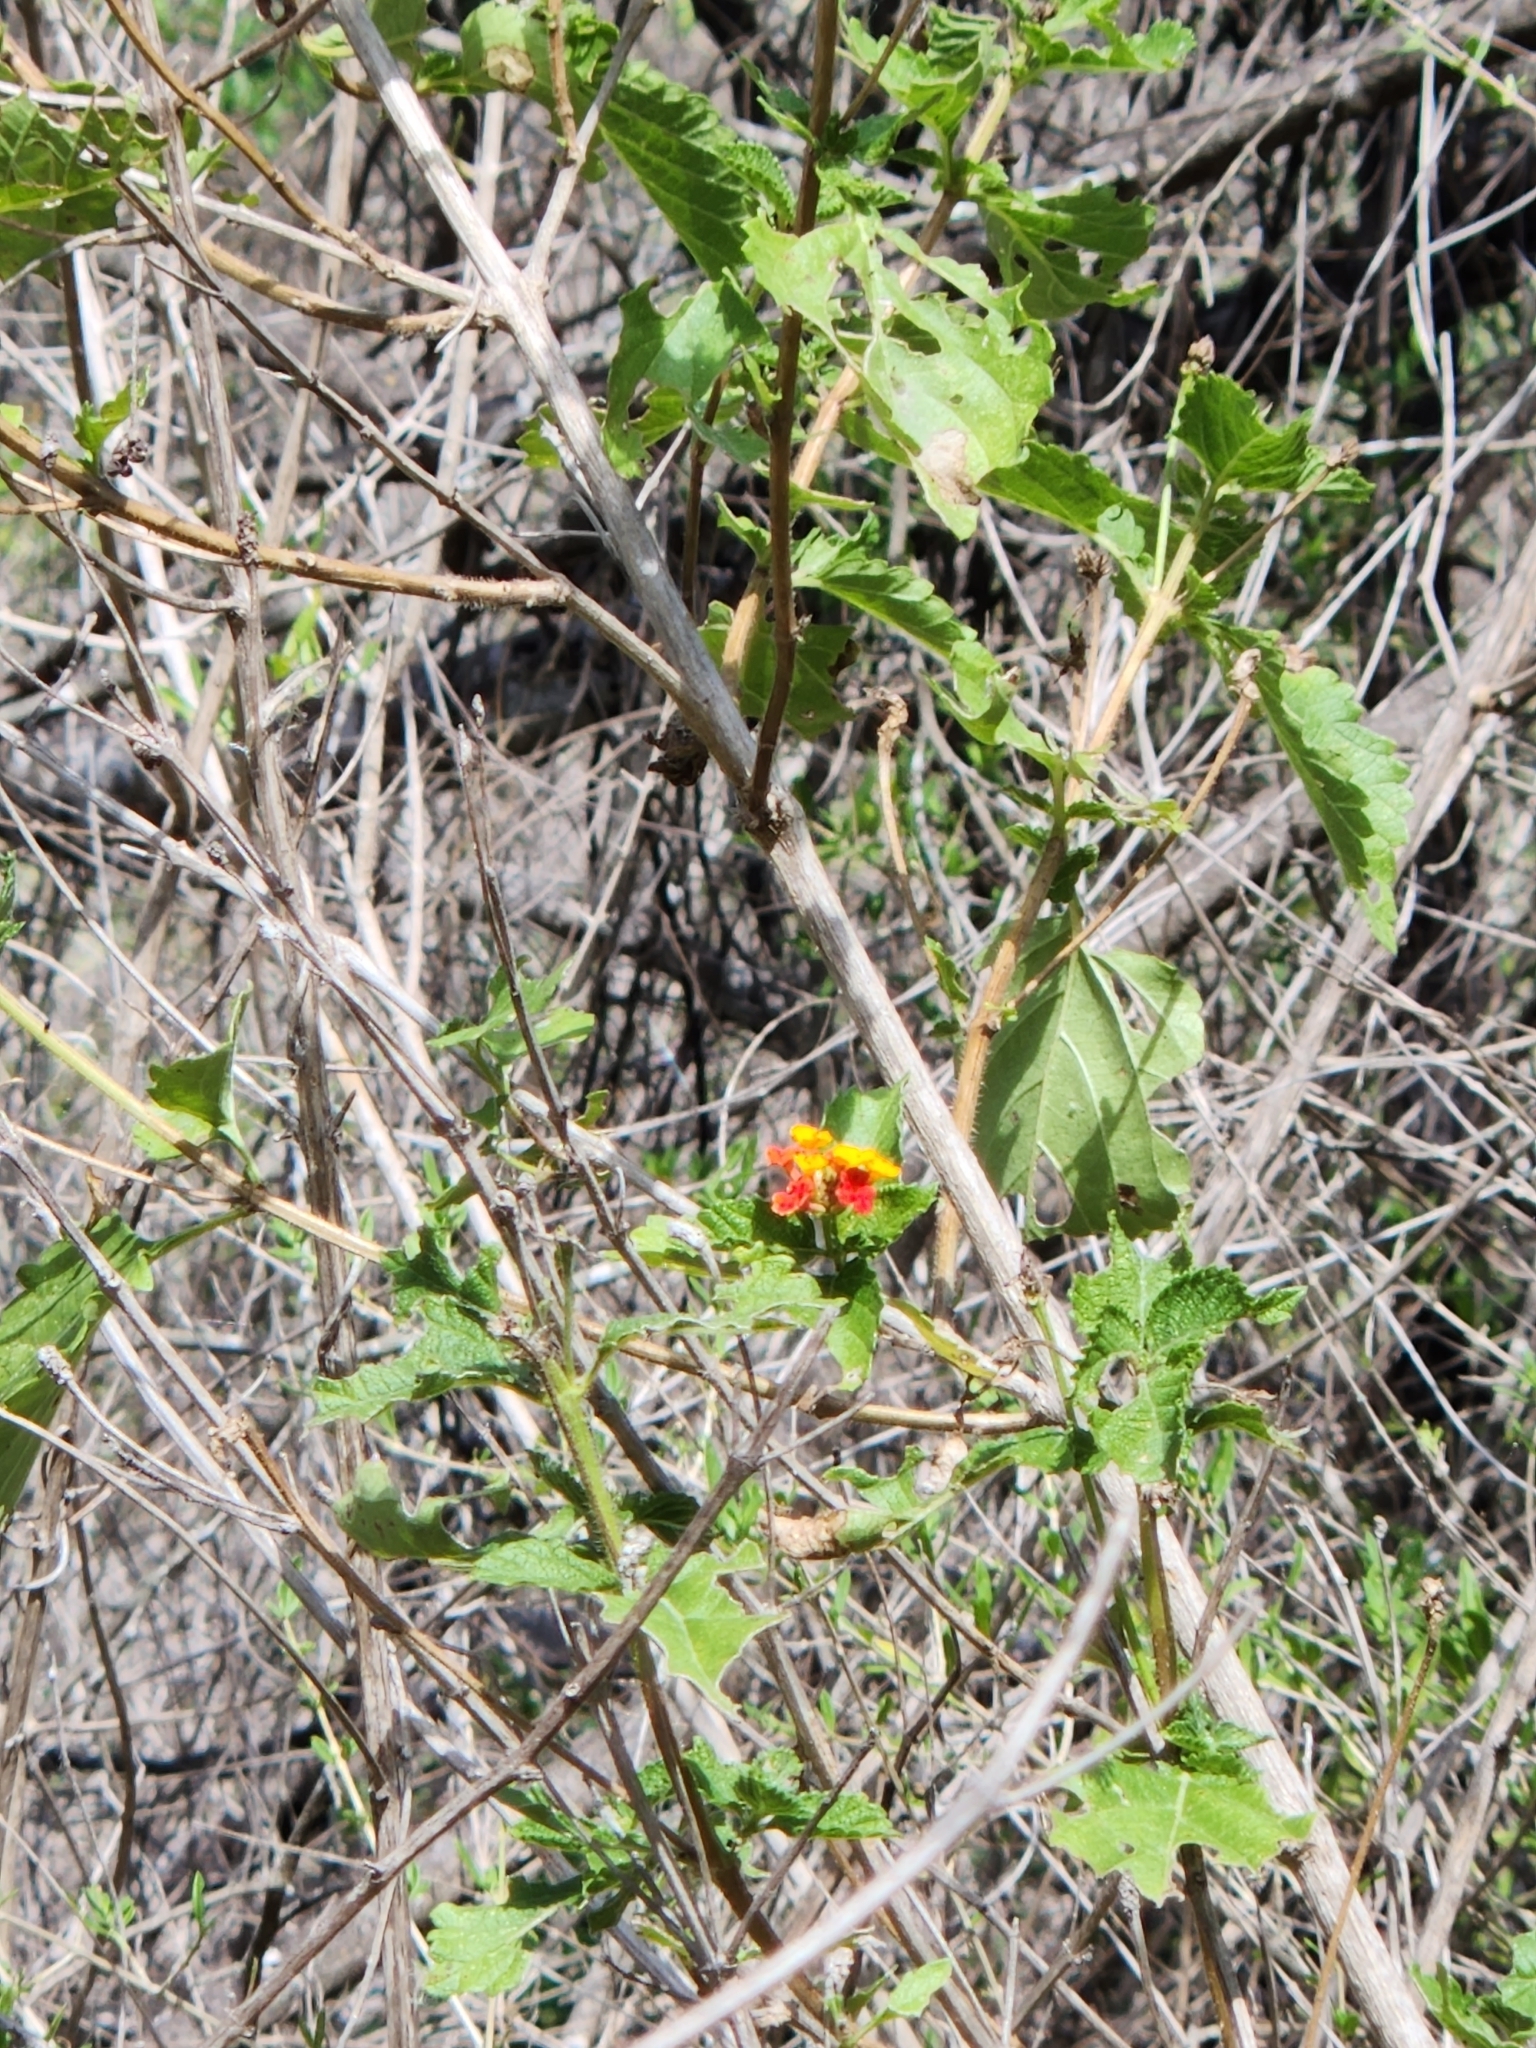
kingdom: Plantae
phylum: Tracheophyta
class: Magnoliopsida
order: Lamiales
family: Verbenaceae
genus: Lantana
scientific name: Lantana urticoides
